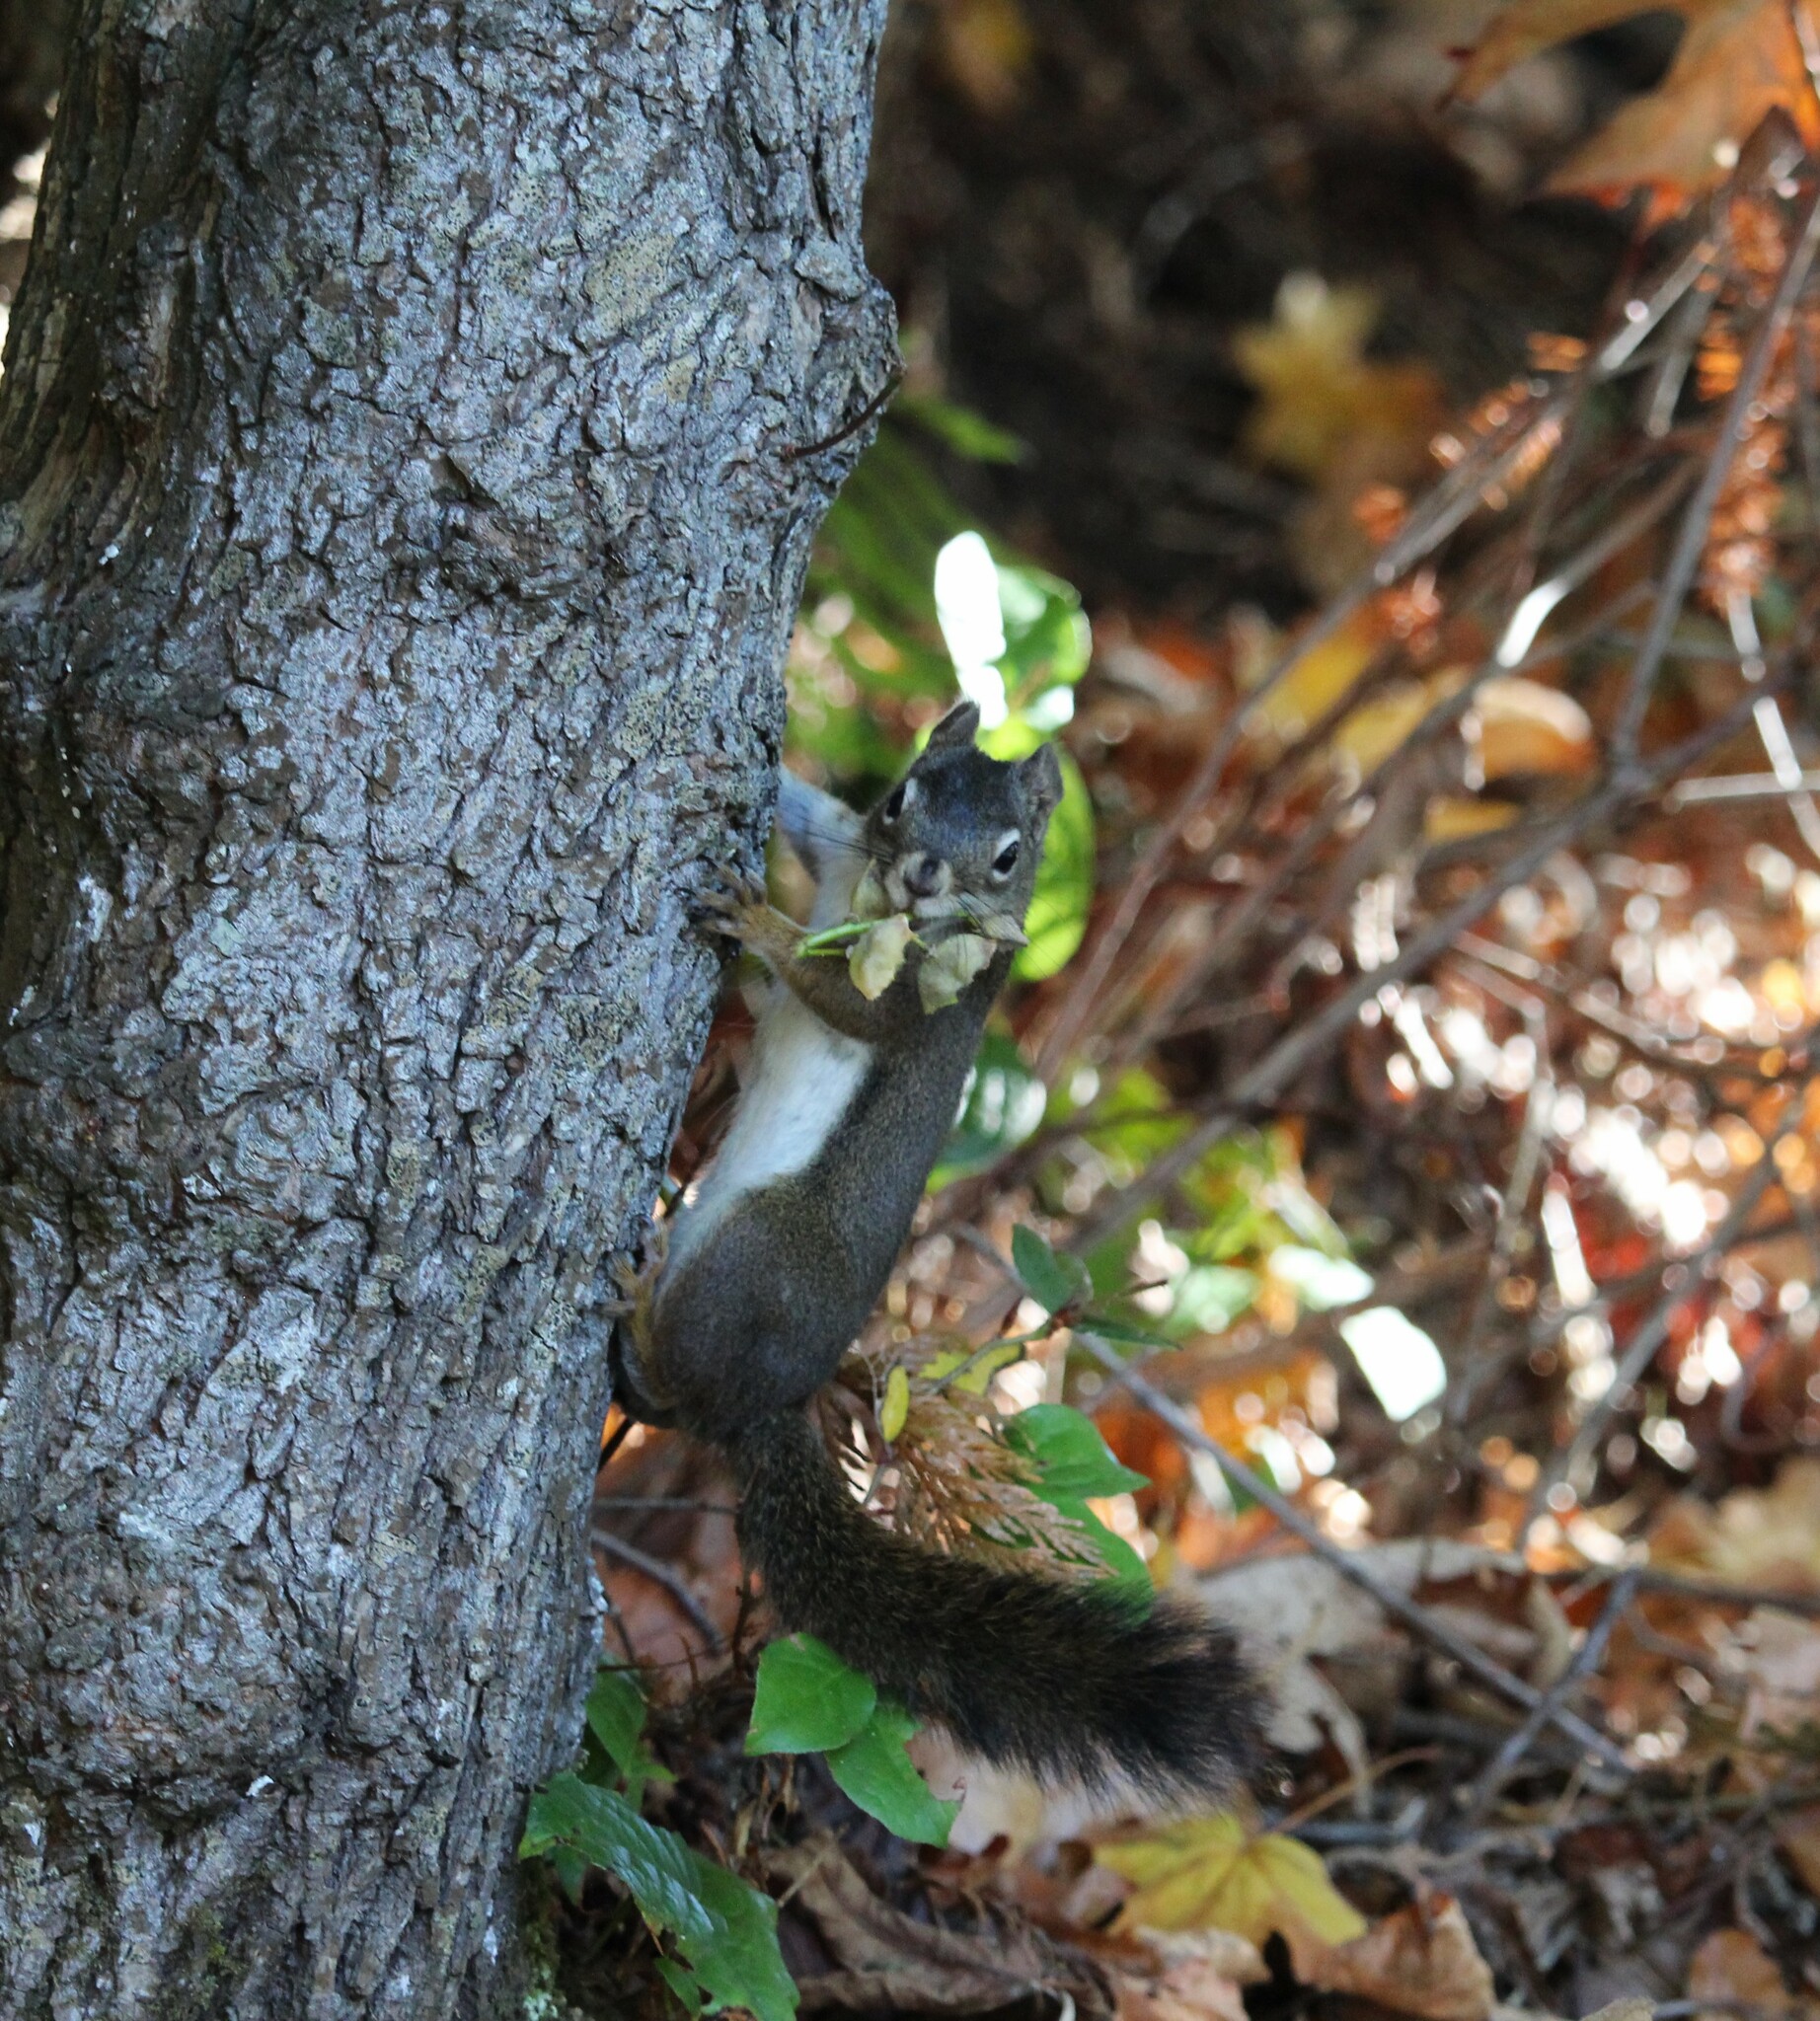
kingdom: Animalia
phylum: Chordata
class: Mammalia
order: Rodentia
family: Sciuridae
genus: Tamiasciurus
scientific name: Tamiasciurus hudsonicus
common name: Red squirrel
